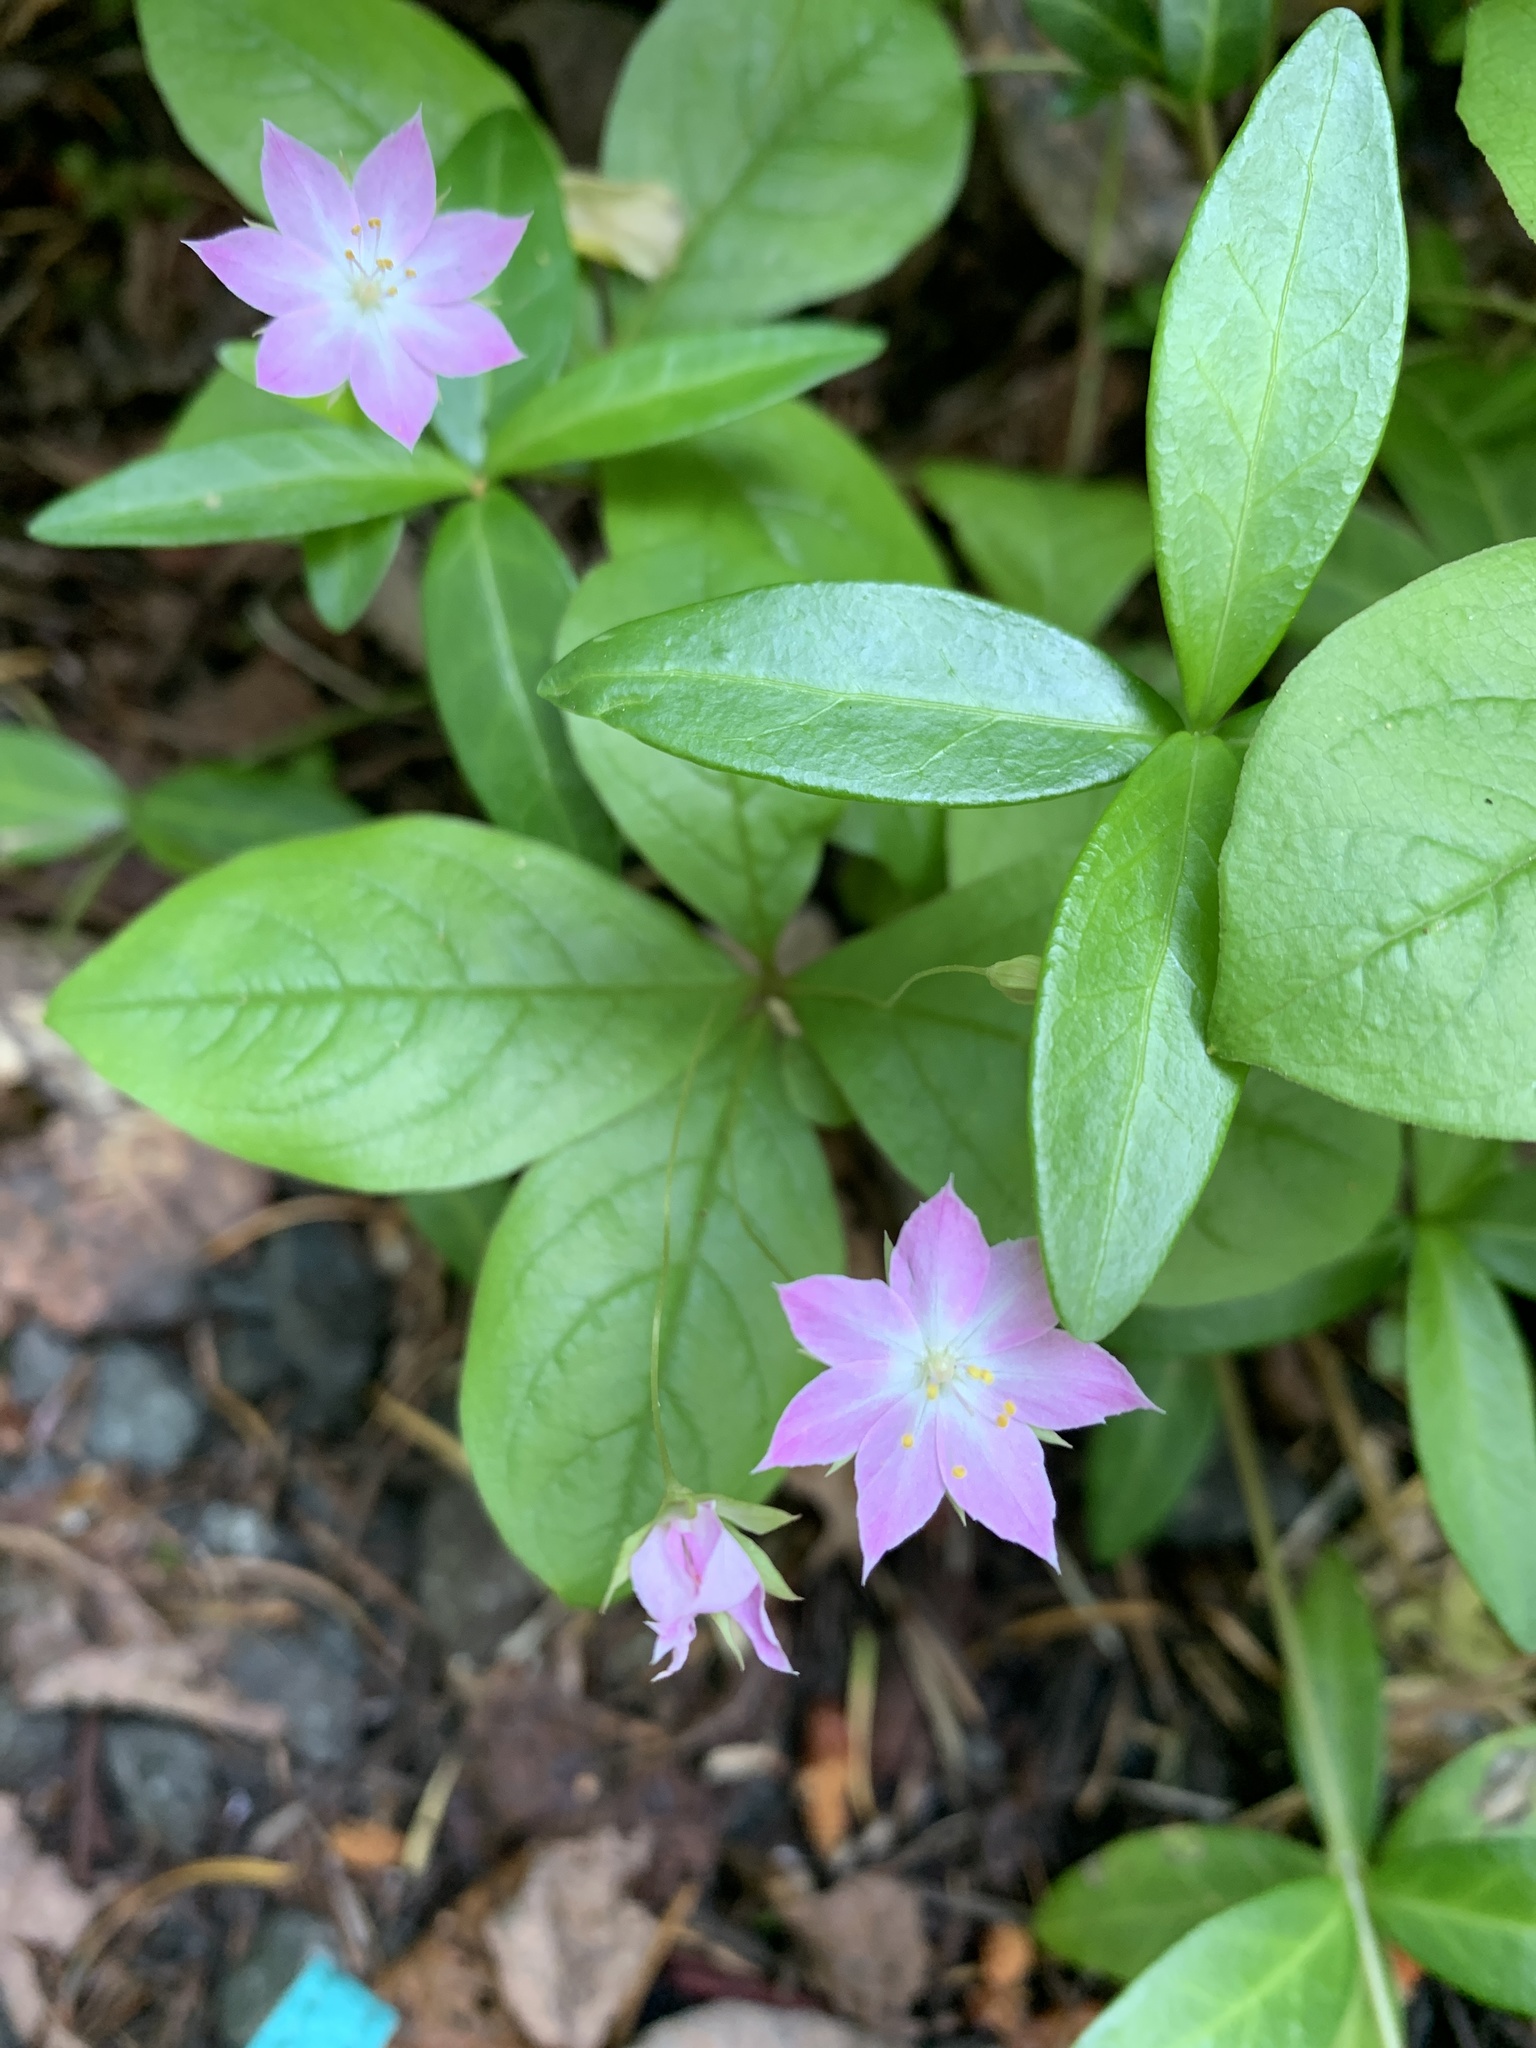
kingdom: Plantae
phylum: Tracheophyta
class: Magnoliopsida
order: Ericales
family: Primulaceae
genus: Lysimachia
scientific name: Lysimachia latifolia
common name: Pacific starflower
